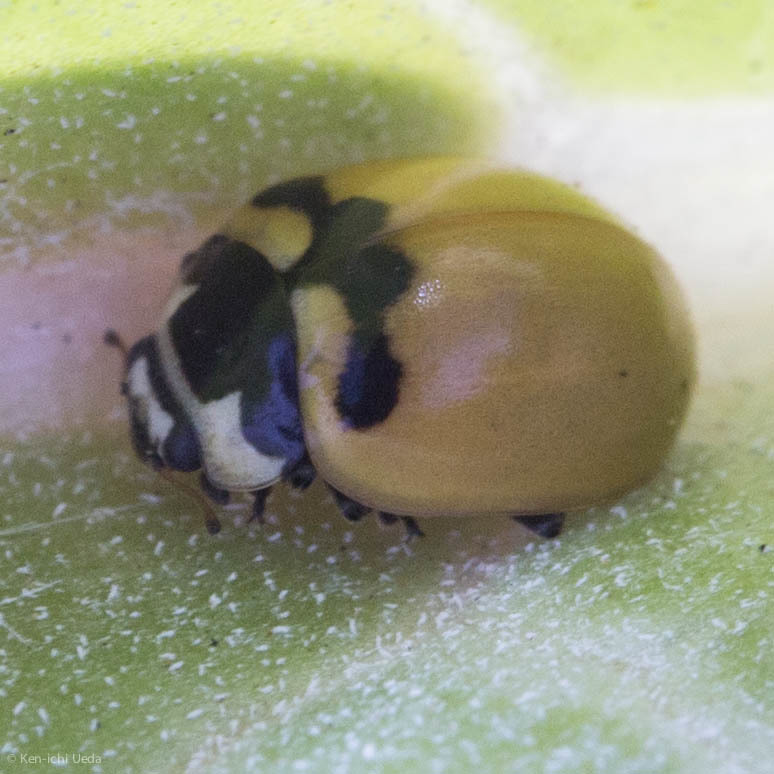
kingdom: Animalia
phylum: Arthropoda
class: Insecta
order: Coleoptera
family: Coccinellidae
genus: Coccinella
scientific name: Coccinella trifasciata
